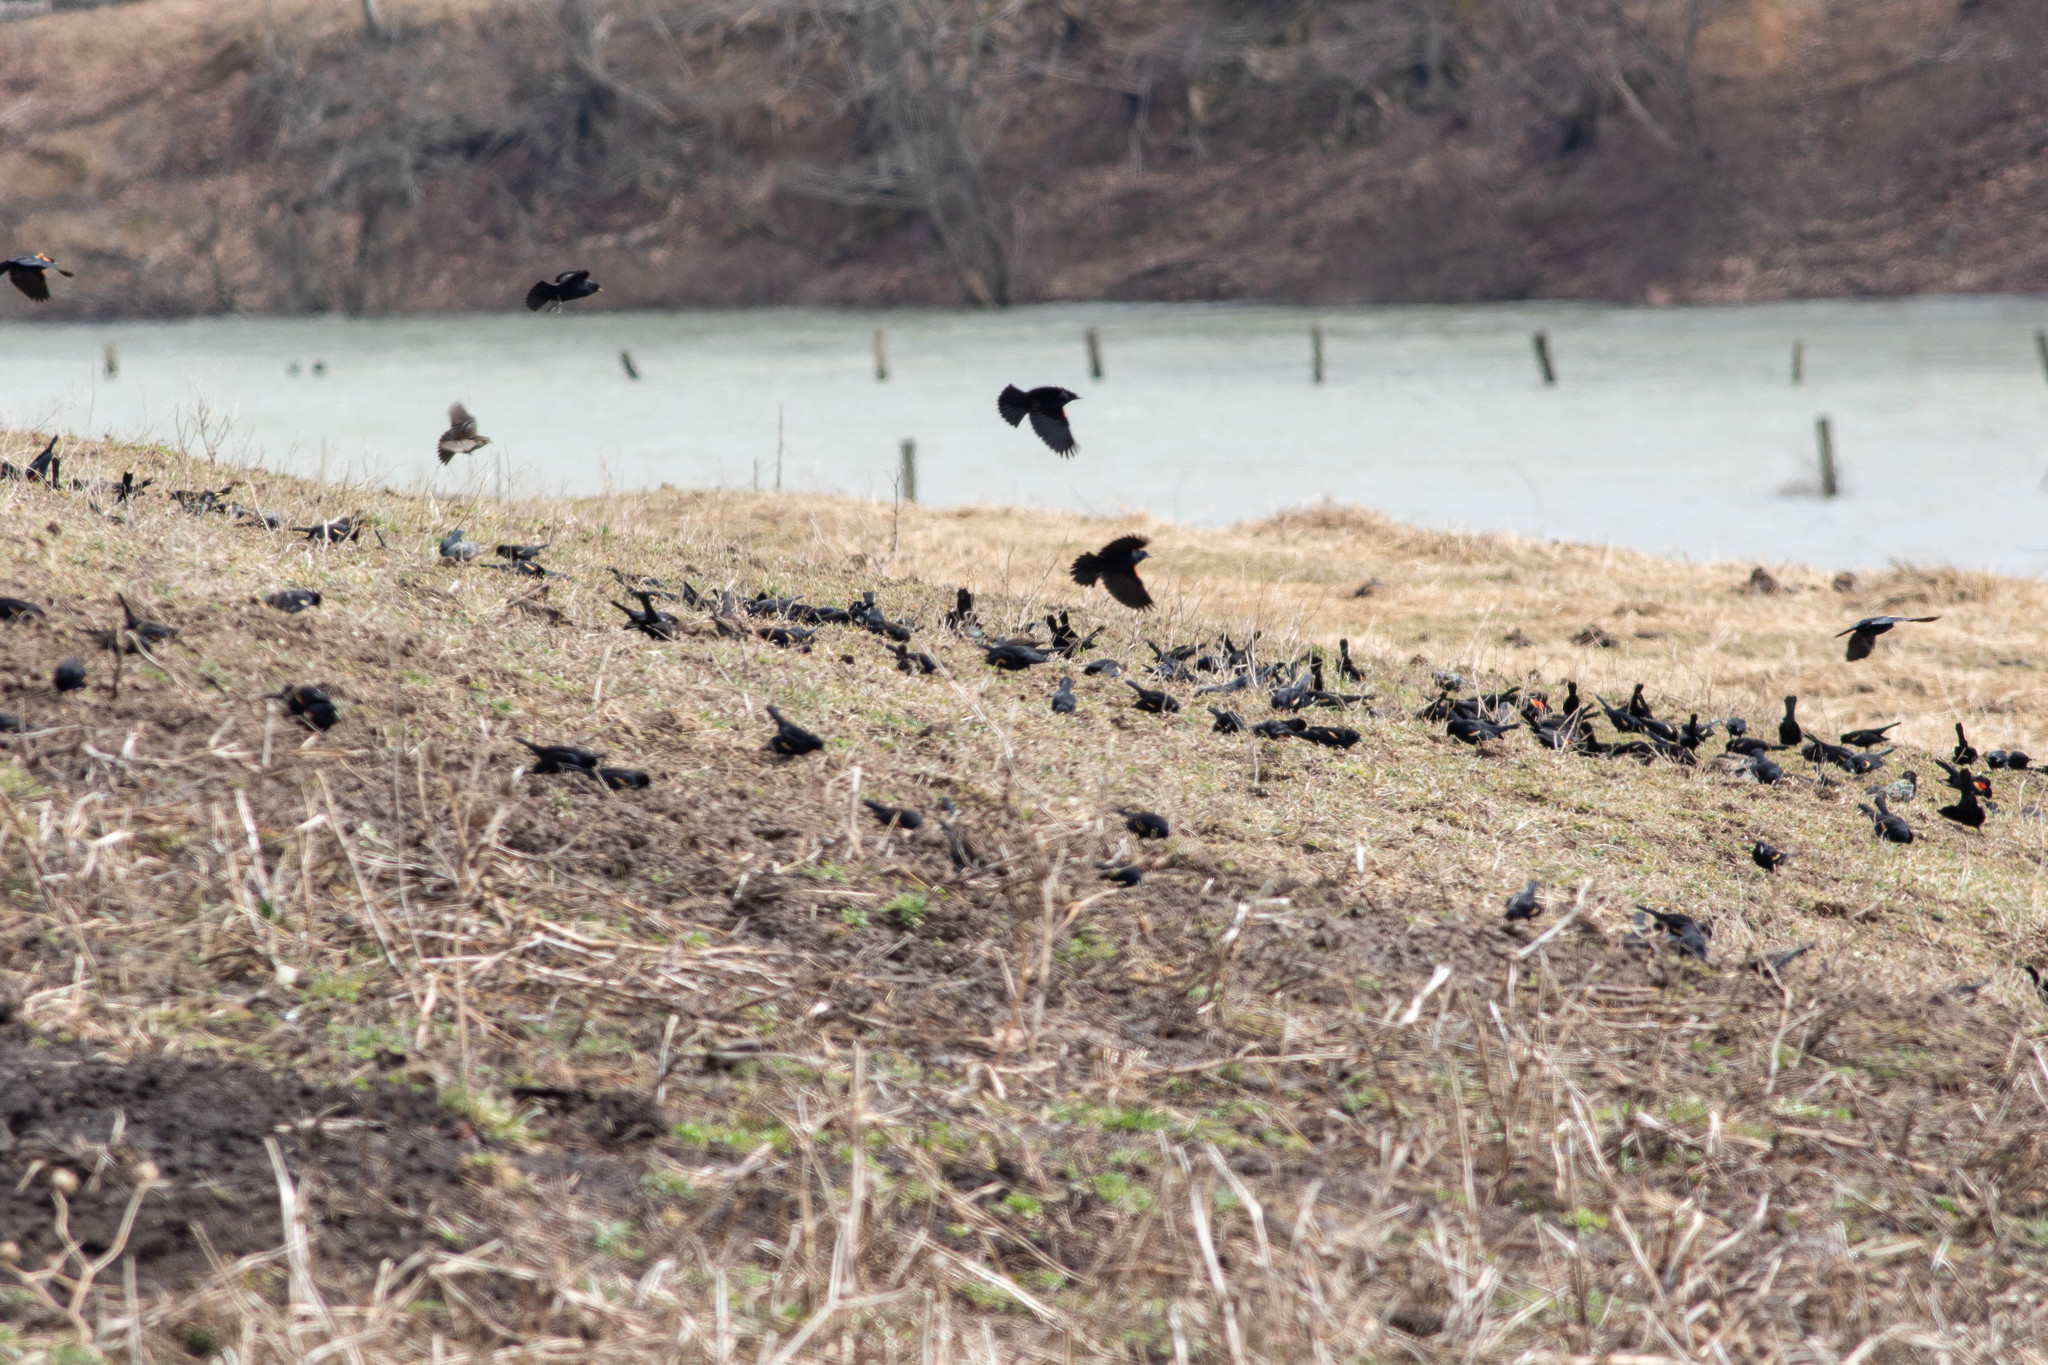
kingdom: Animalia
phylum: Chordata
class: Aves
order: Passeriformes
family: Icteridae
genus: Agelaius
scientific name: Agelaius phoeniceus
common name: Red-winged blackbird
